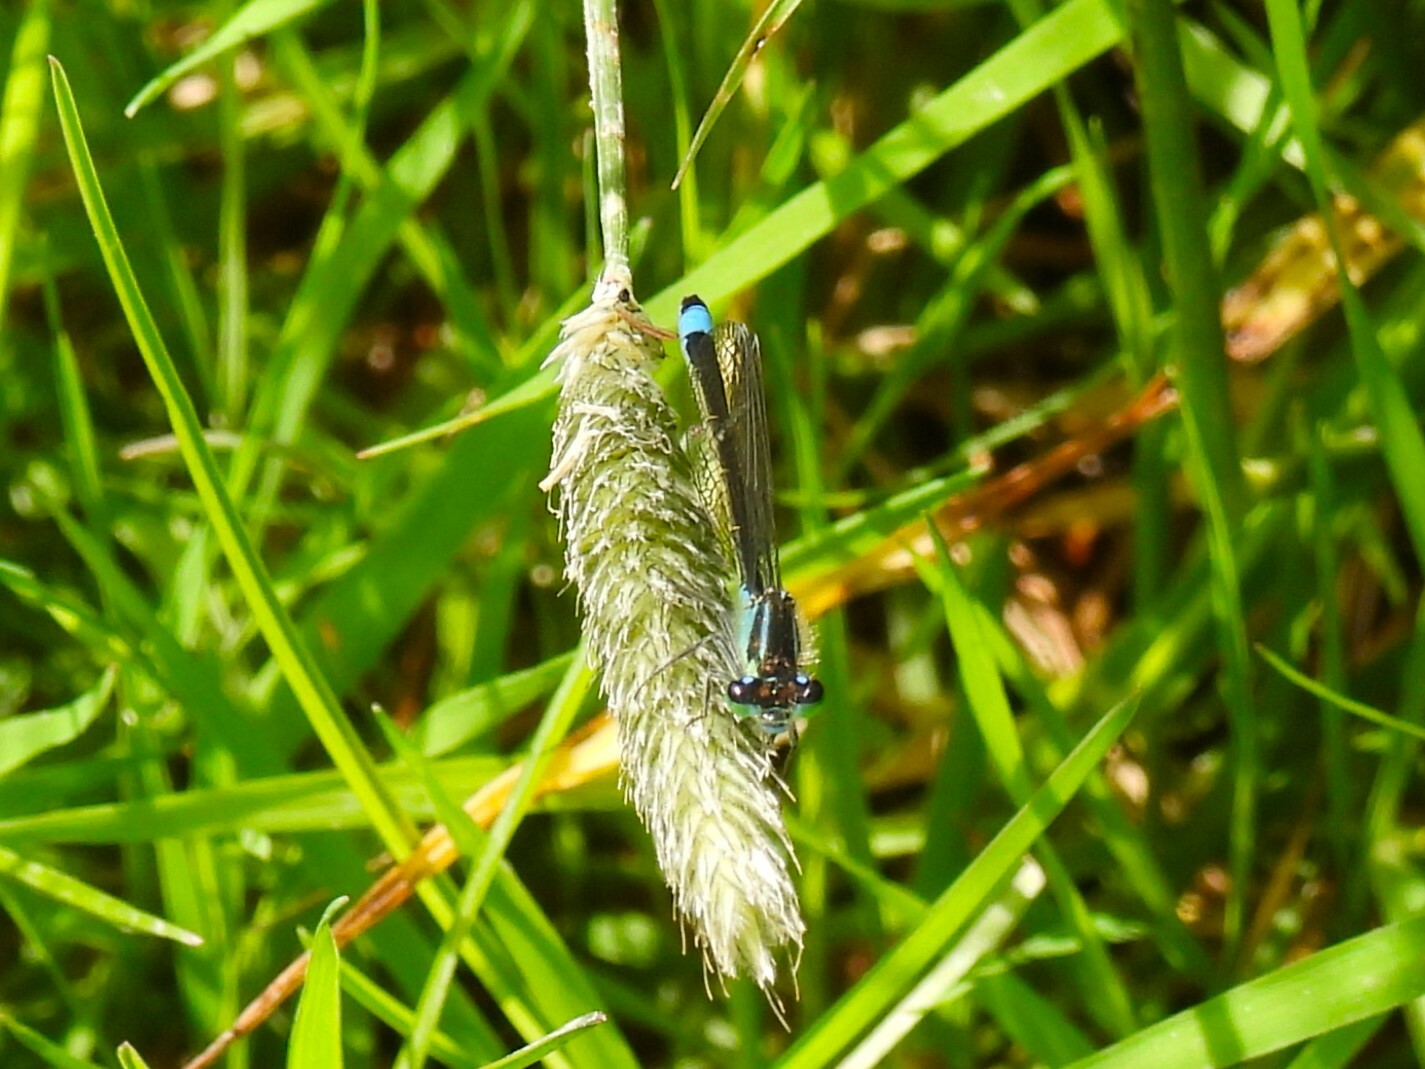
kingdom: Animalia
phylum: Arthropoda
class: Insecta
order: Odonata
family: Coenagrionidae
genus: Ischnura
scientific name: Ischnura elegans
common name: Blue-tailed damselfly
